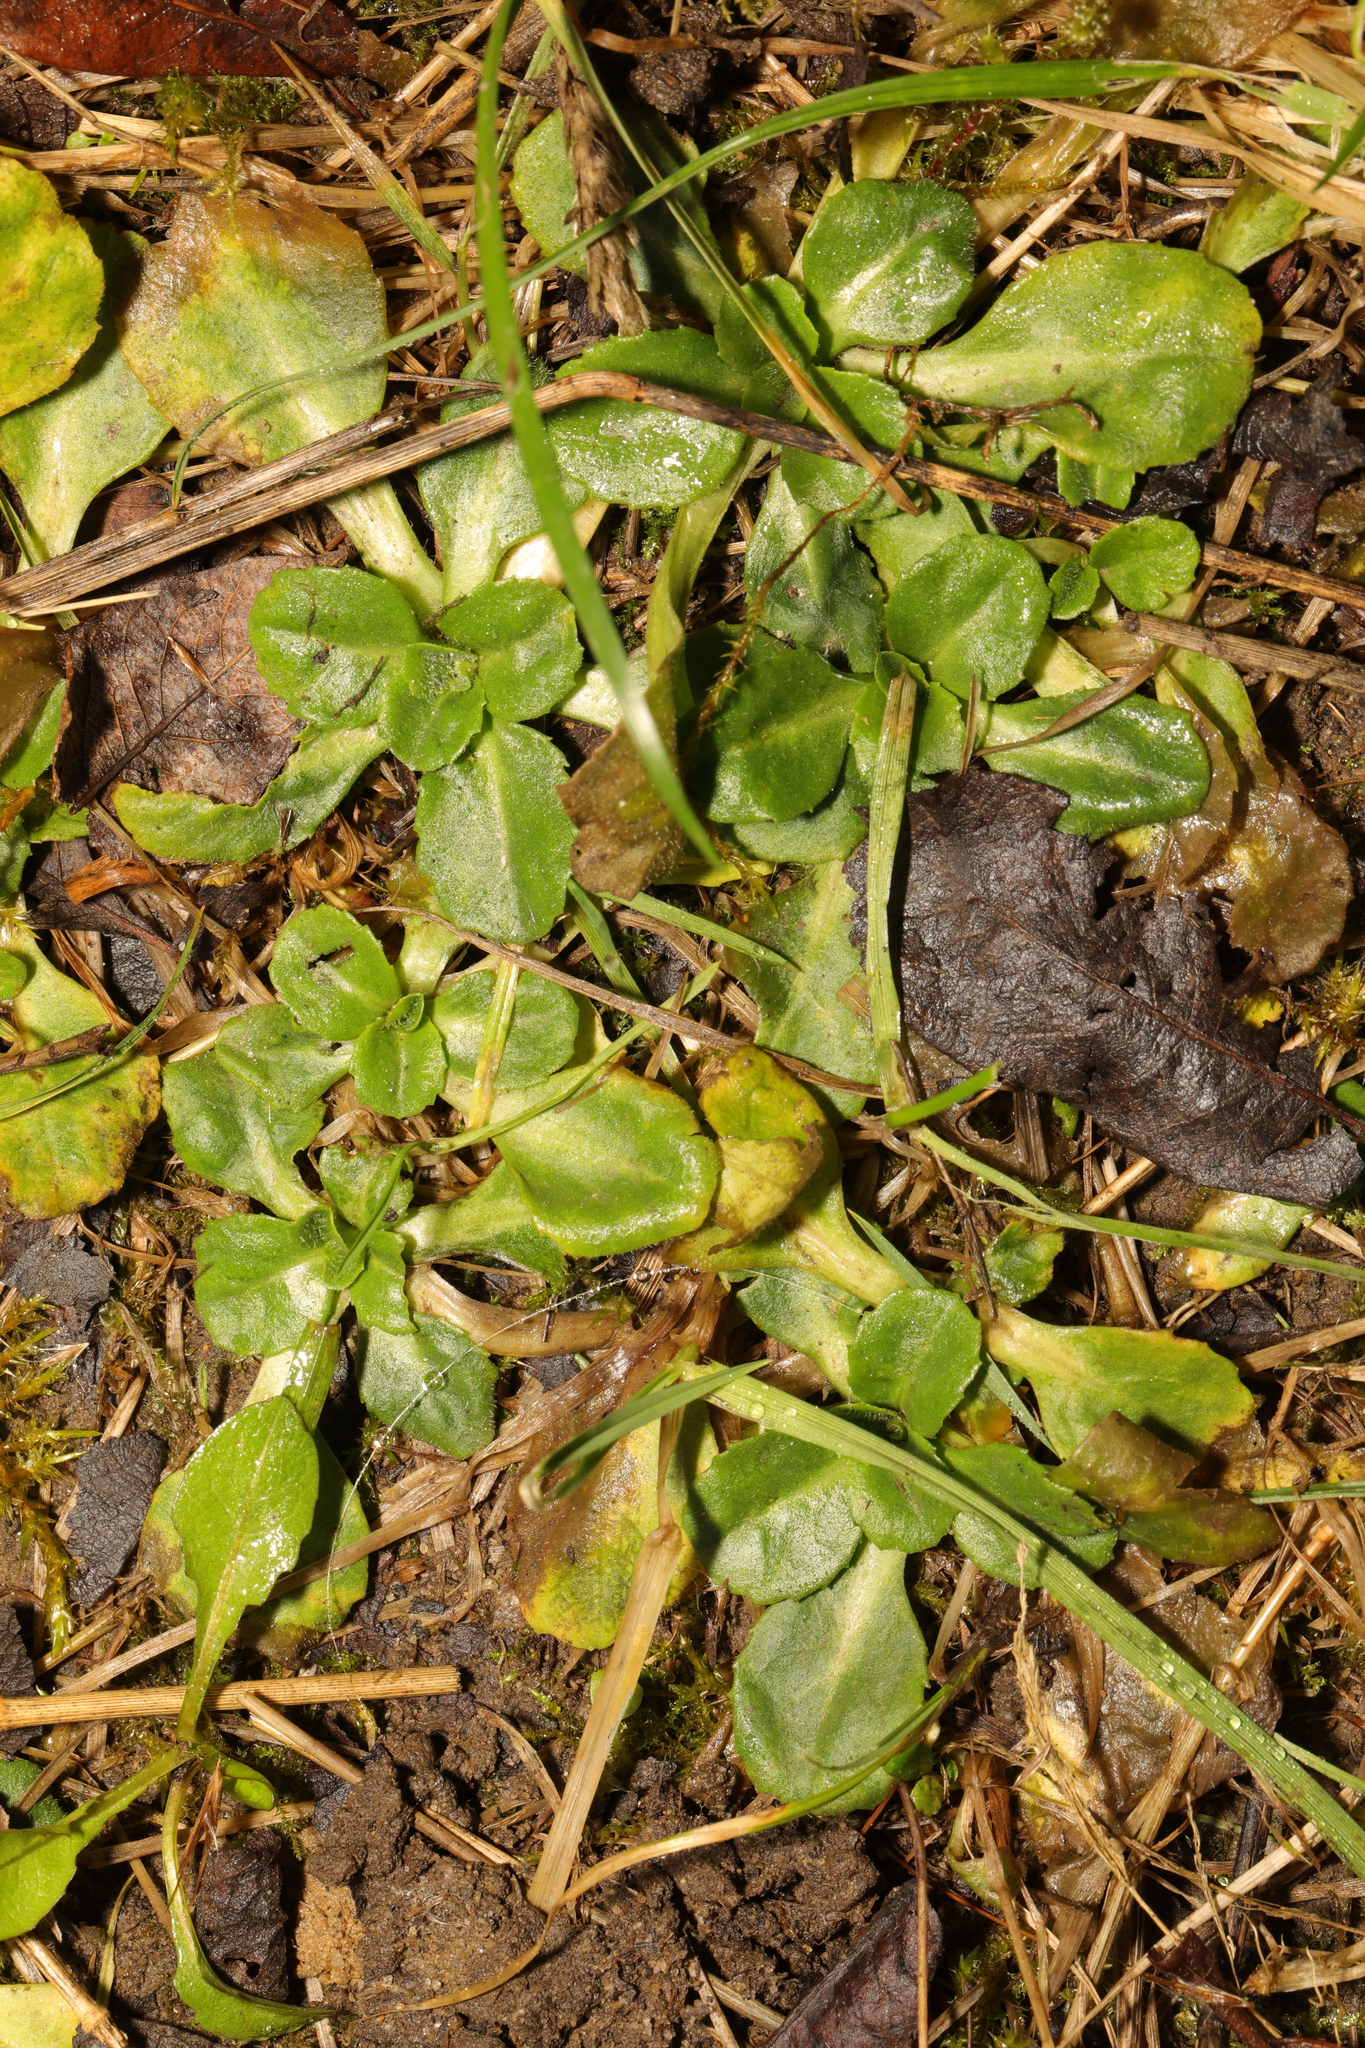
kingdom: Plantae
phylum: Tracheophyta
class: Magnoliopsida
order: Asterales
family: Asteraceae
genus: Bellis
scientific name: Bellis perennis
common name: Lawndaisy
